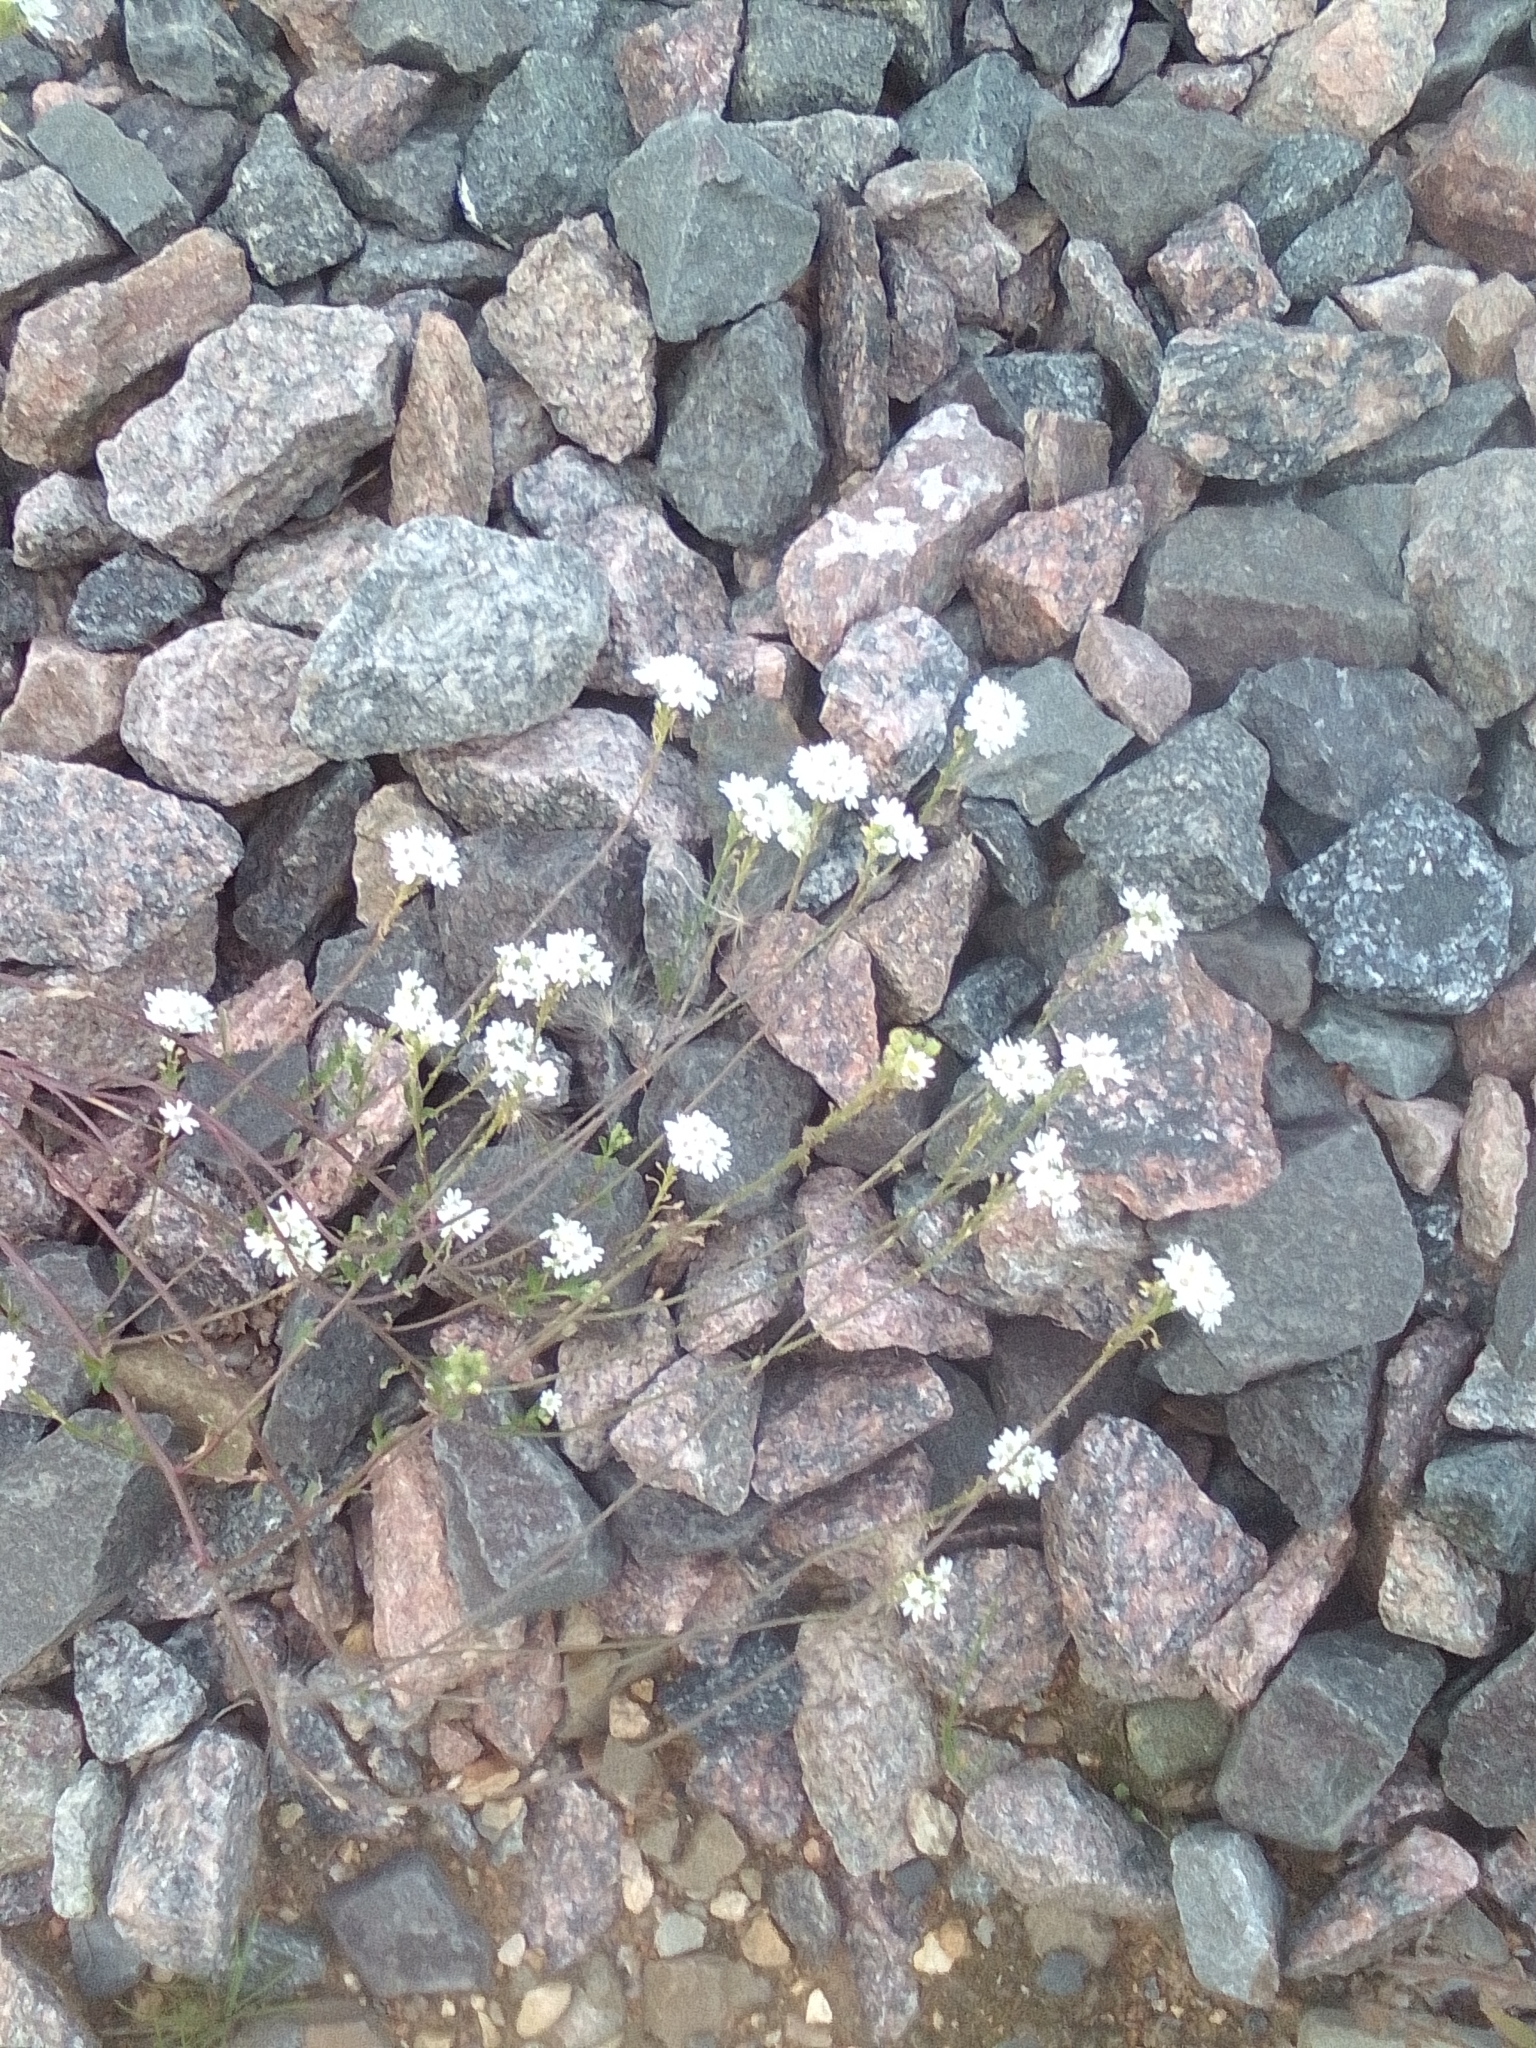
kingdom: Plantae
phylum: Tracheophyta
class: Magnoliopsida
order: Brassicales
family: Brassicaceae
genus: Berteroa
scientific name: Berteroa incana
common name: Hoary alison
